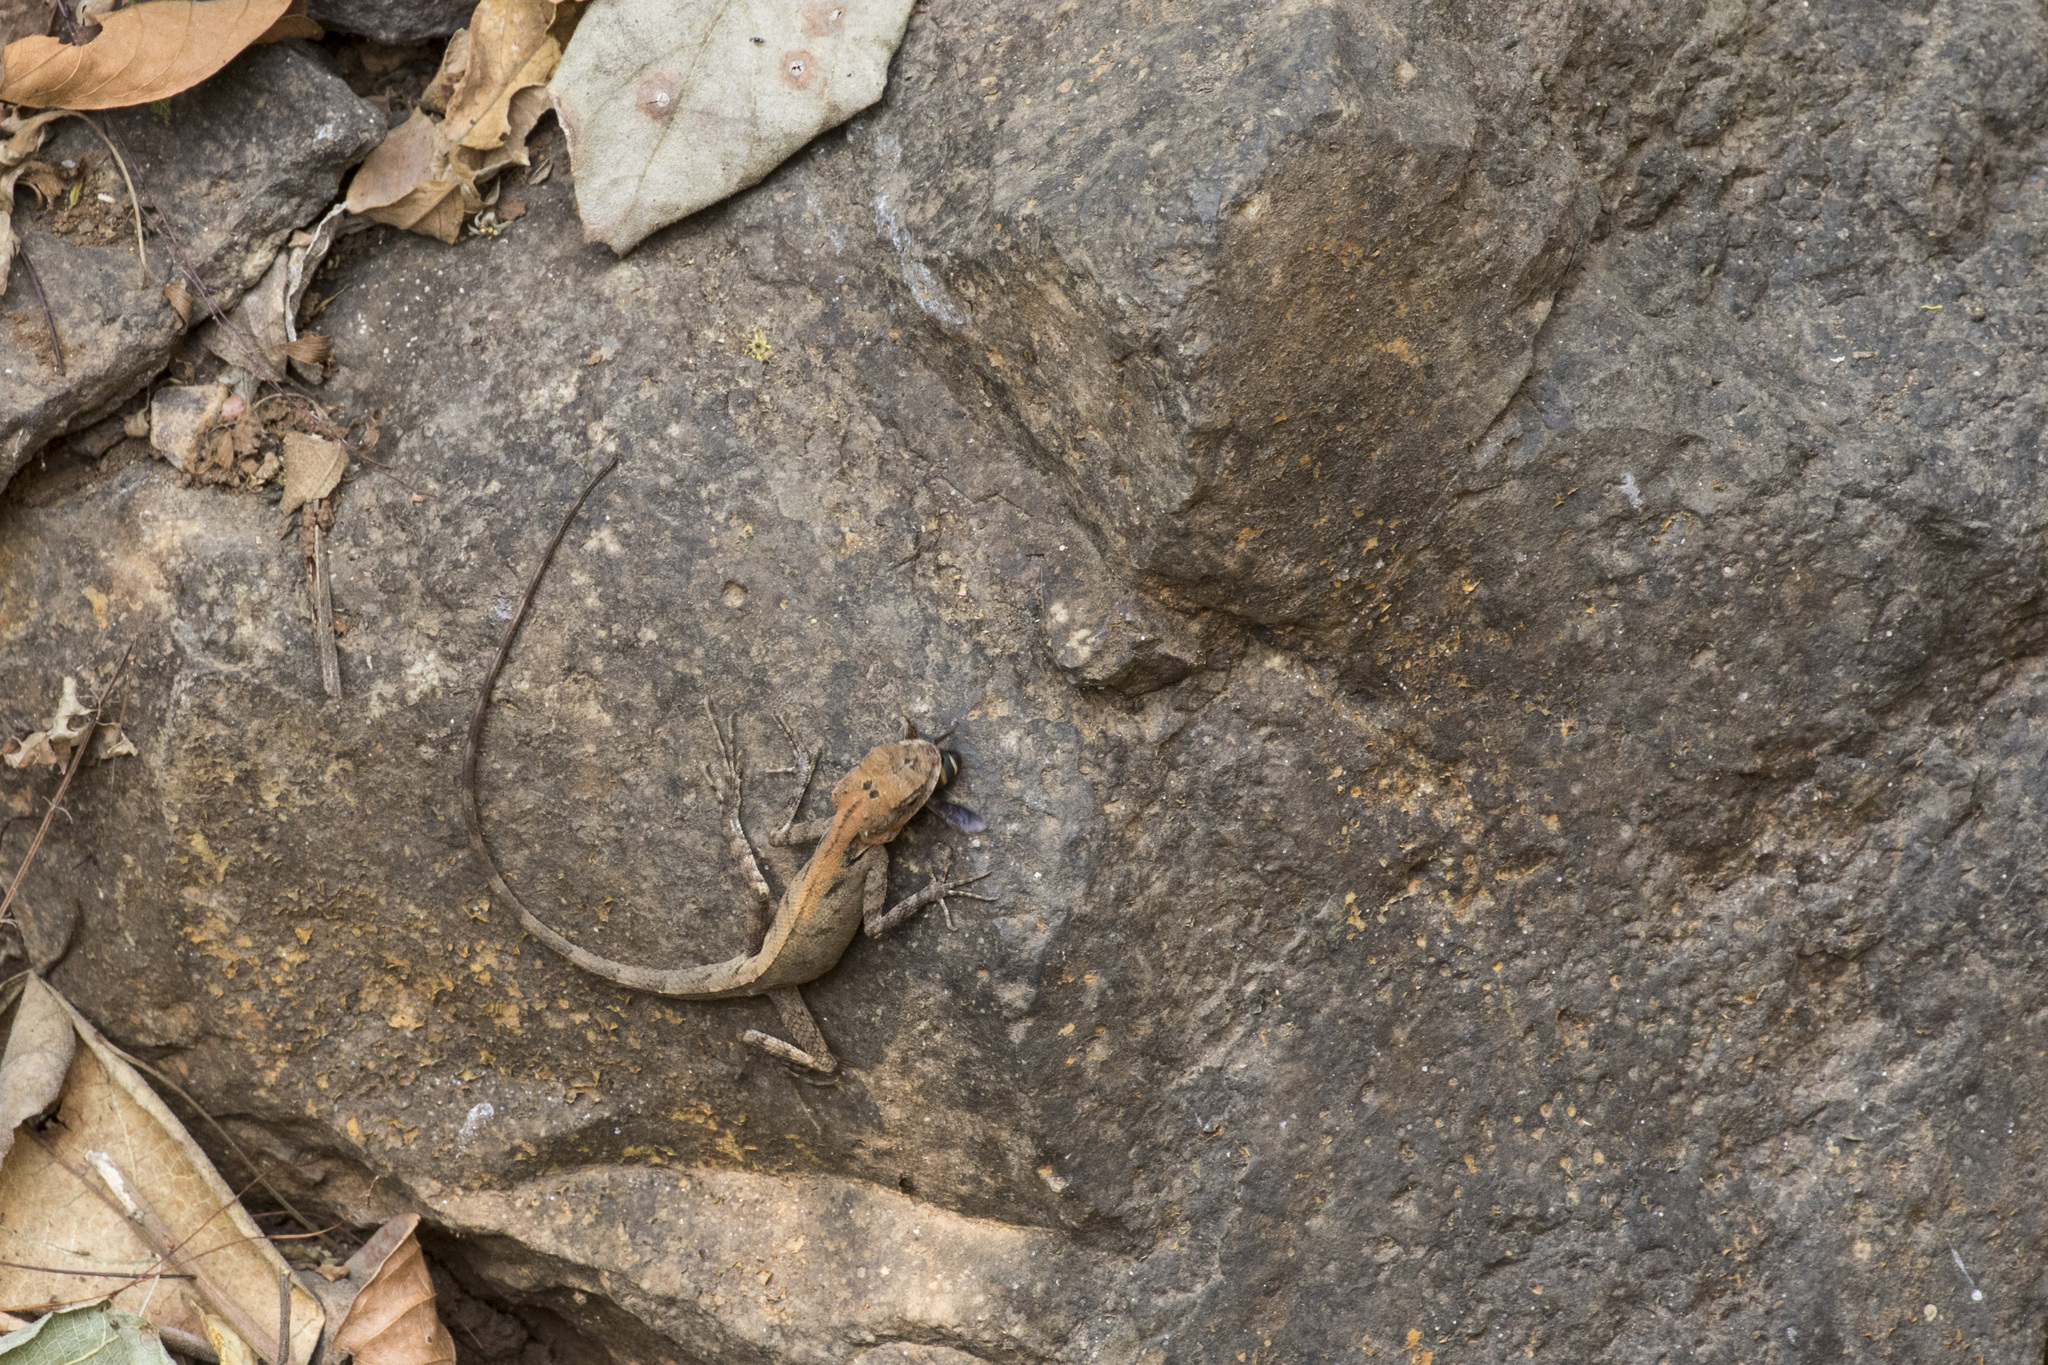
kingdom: Animalia
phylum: Chordata
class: Squamata
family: Agamidae
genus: Monilesaurus
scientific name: Monilesaurus rouxii
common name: Roux's forest lizard
